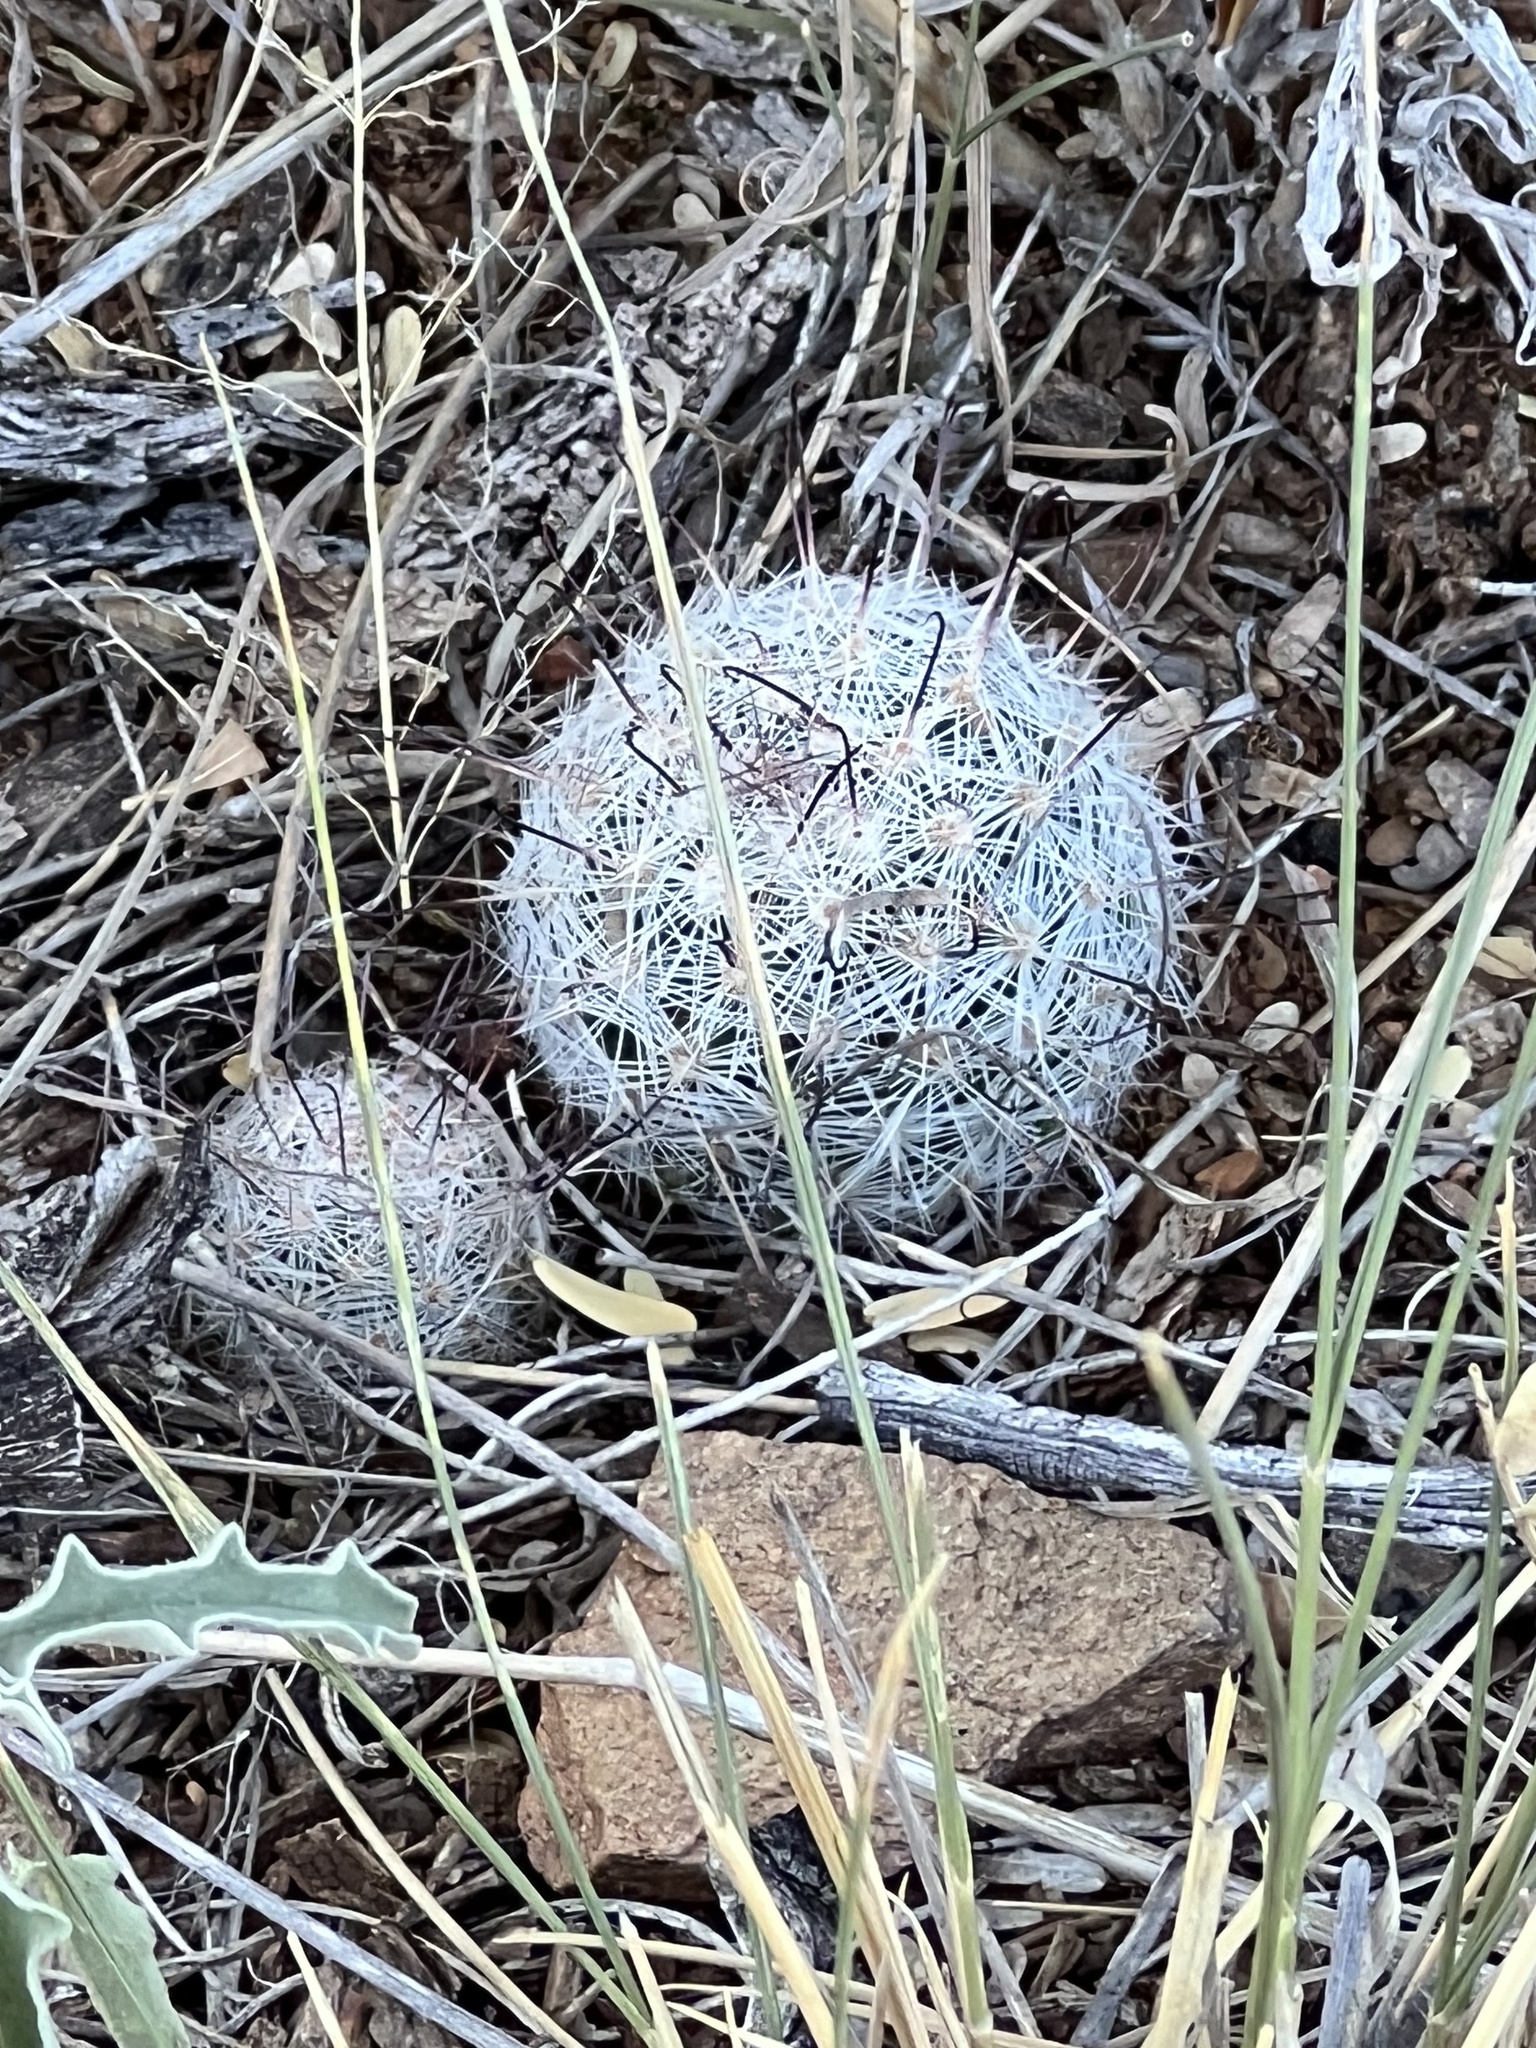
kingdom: Plantae
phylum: Tracheophyta
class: Magnoliopsida
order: Caryophyllales
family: Cactaceae
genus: Cochemiea
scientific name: Cochemiea grahamii
